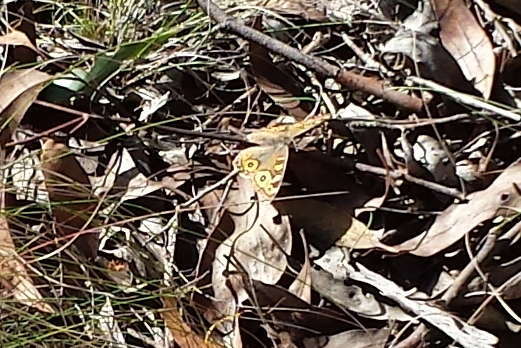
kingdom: Animalia
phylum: Arthropoda
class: Insecta
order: Lepidoptera
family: Nymphalidae
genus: Junonia
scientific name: Junonia villida
